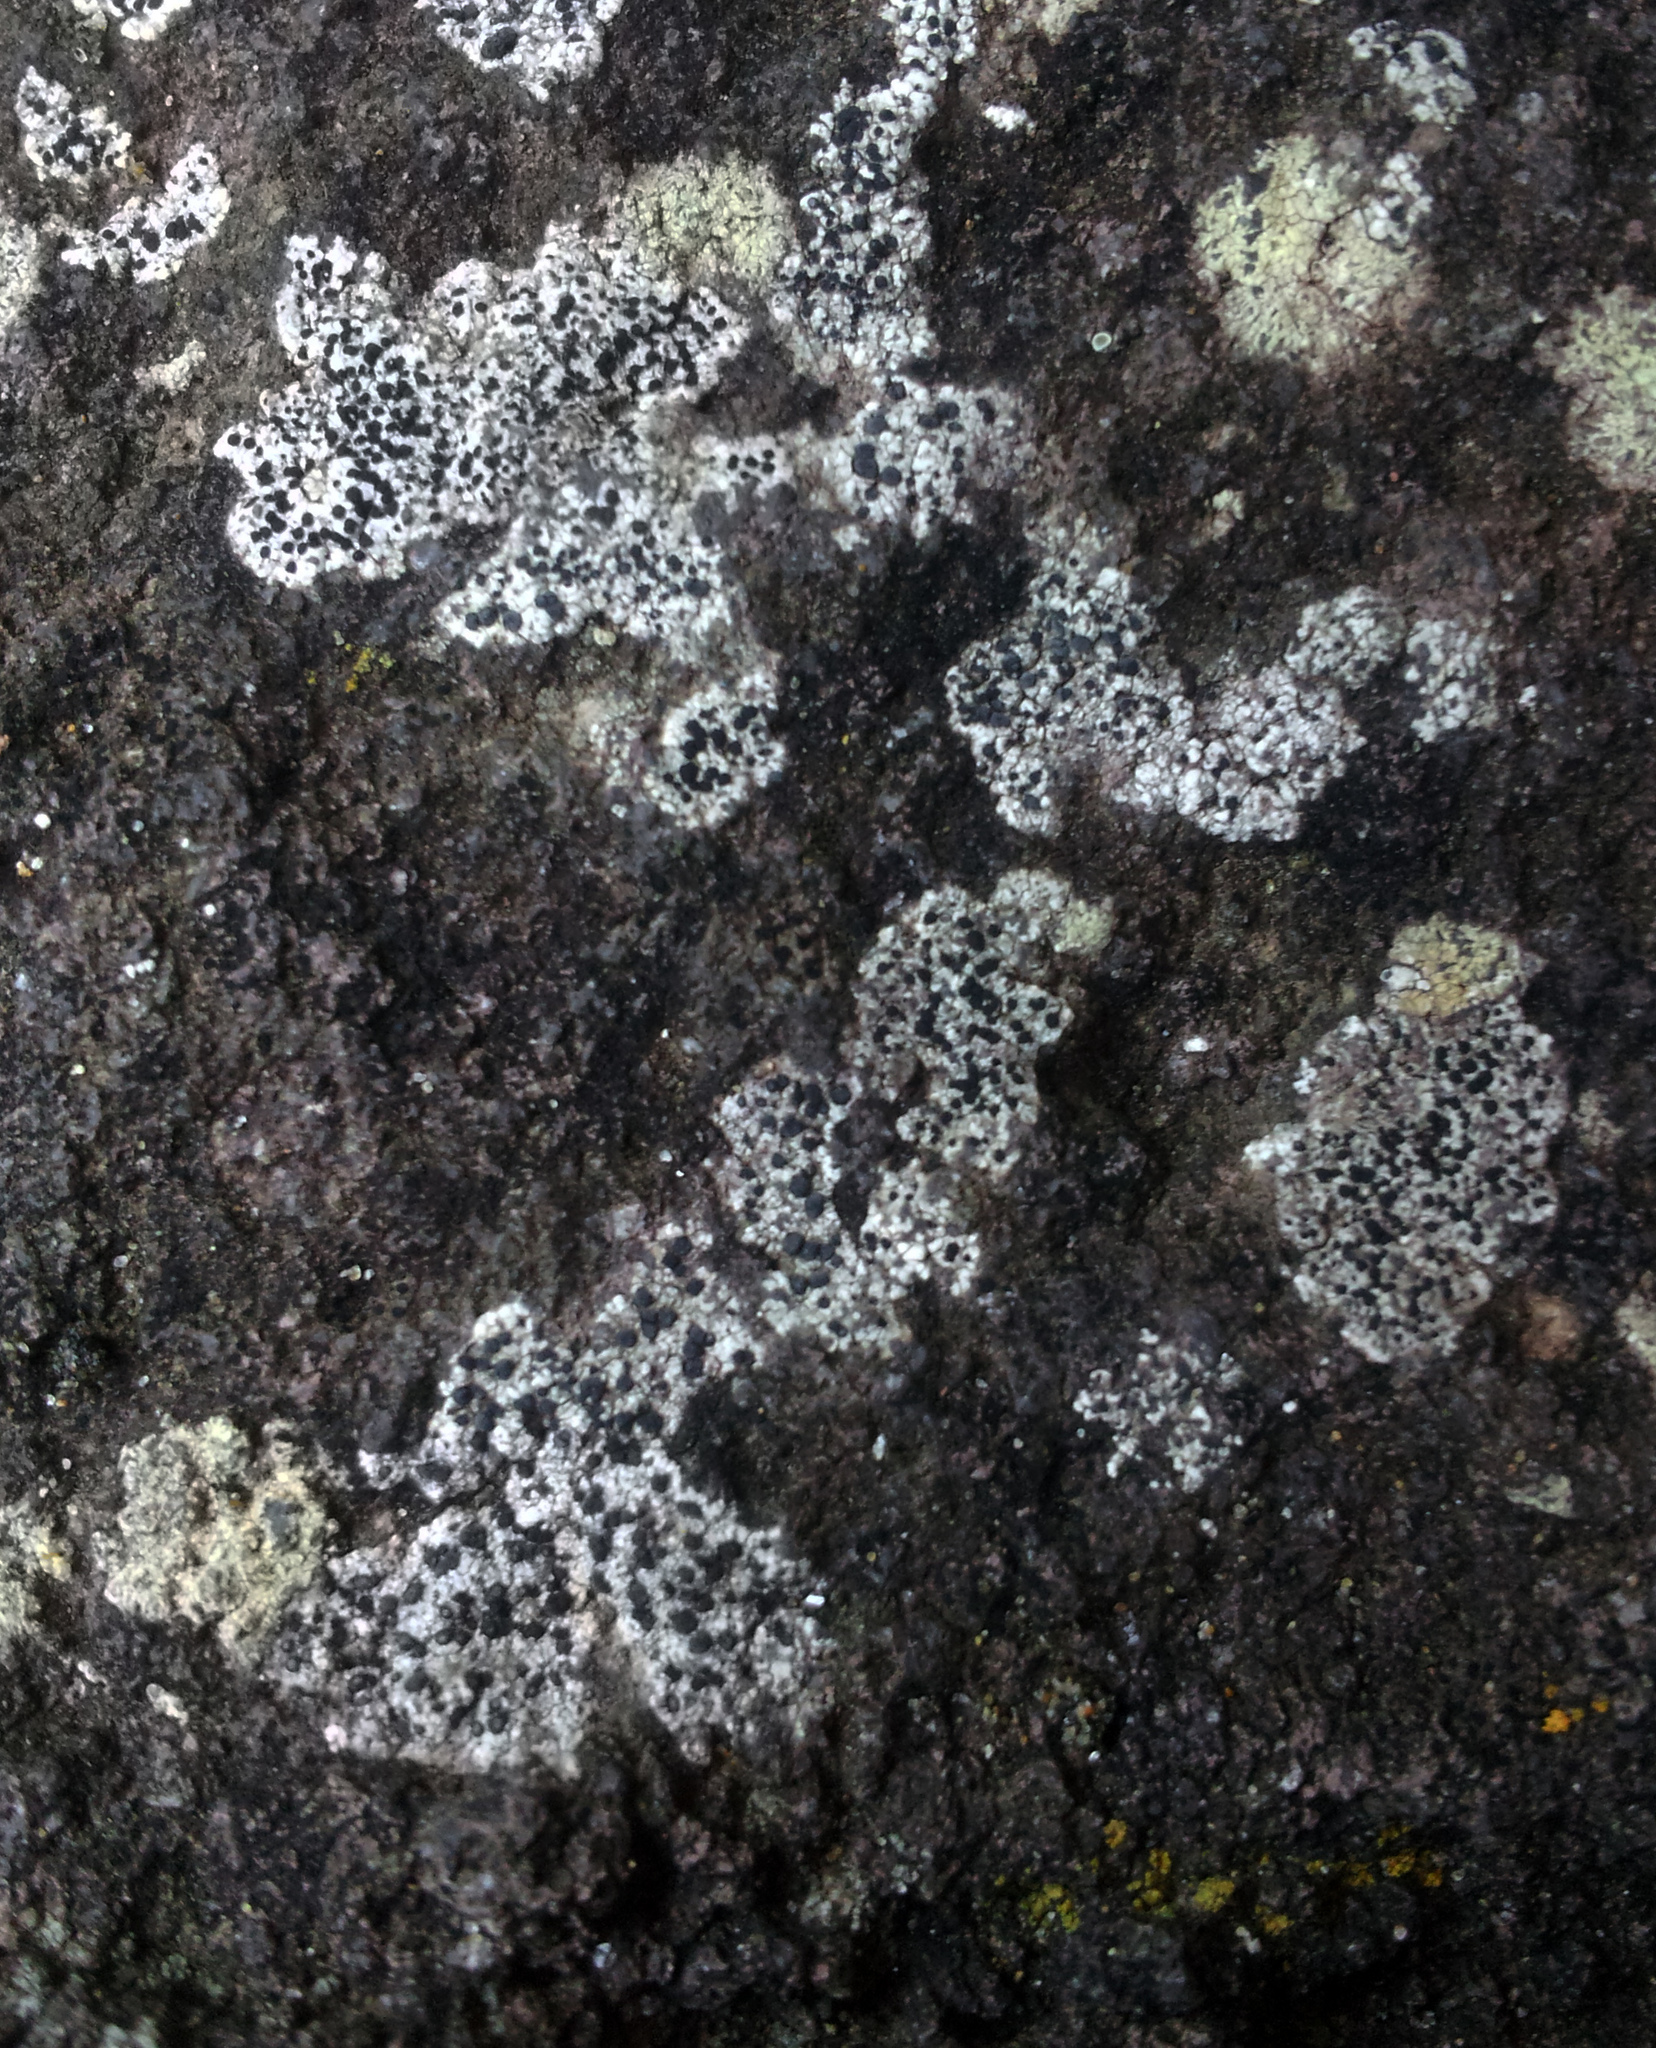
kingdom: Fungi
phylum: Ascomycota
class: Lecanoromycetes
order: Caliciales
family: Caliciaceae
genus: Buellia
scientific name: Buellia
